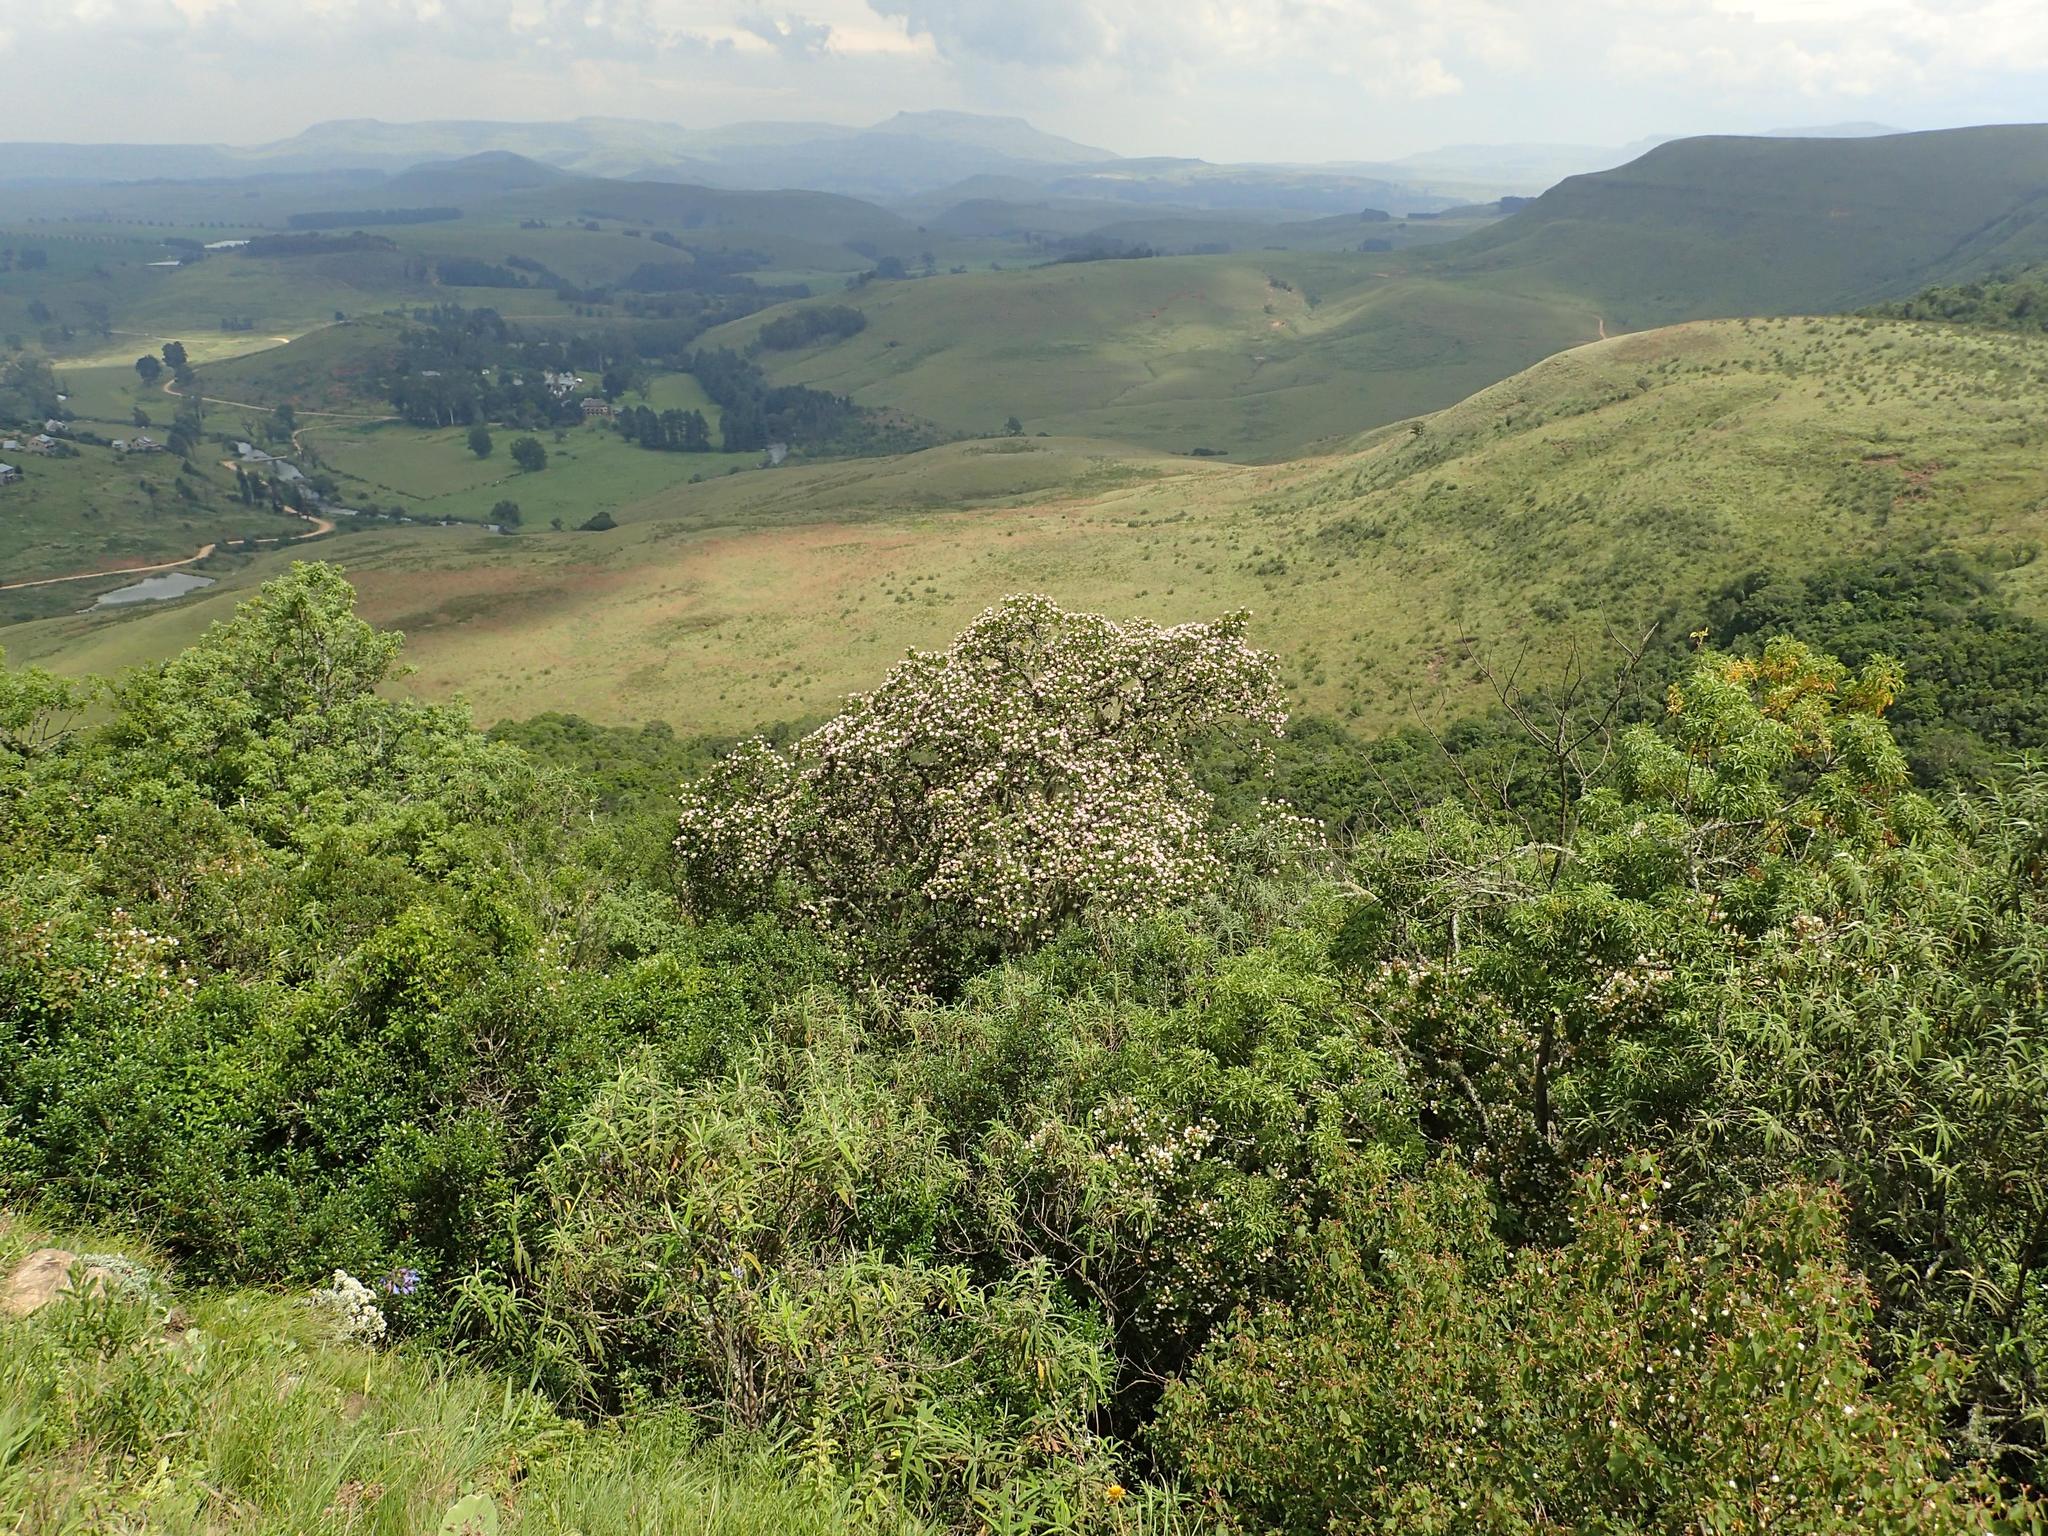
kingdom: Plantae
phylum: Tracheophyta
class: Liliopsida
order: Asparagales
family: Amaryllidaceae
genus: Agapanthus
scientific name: Agapanthus campanulatus
